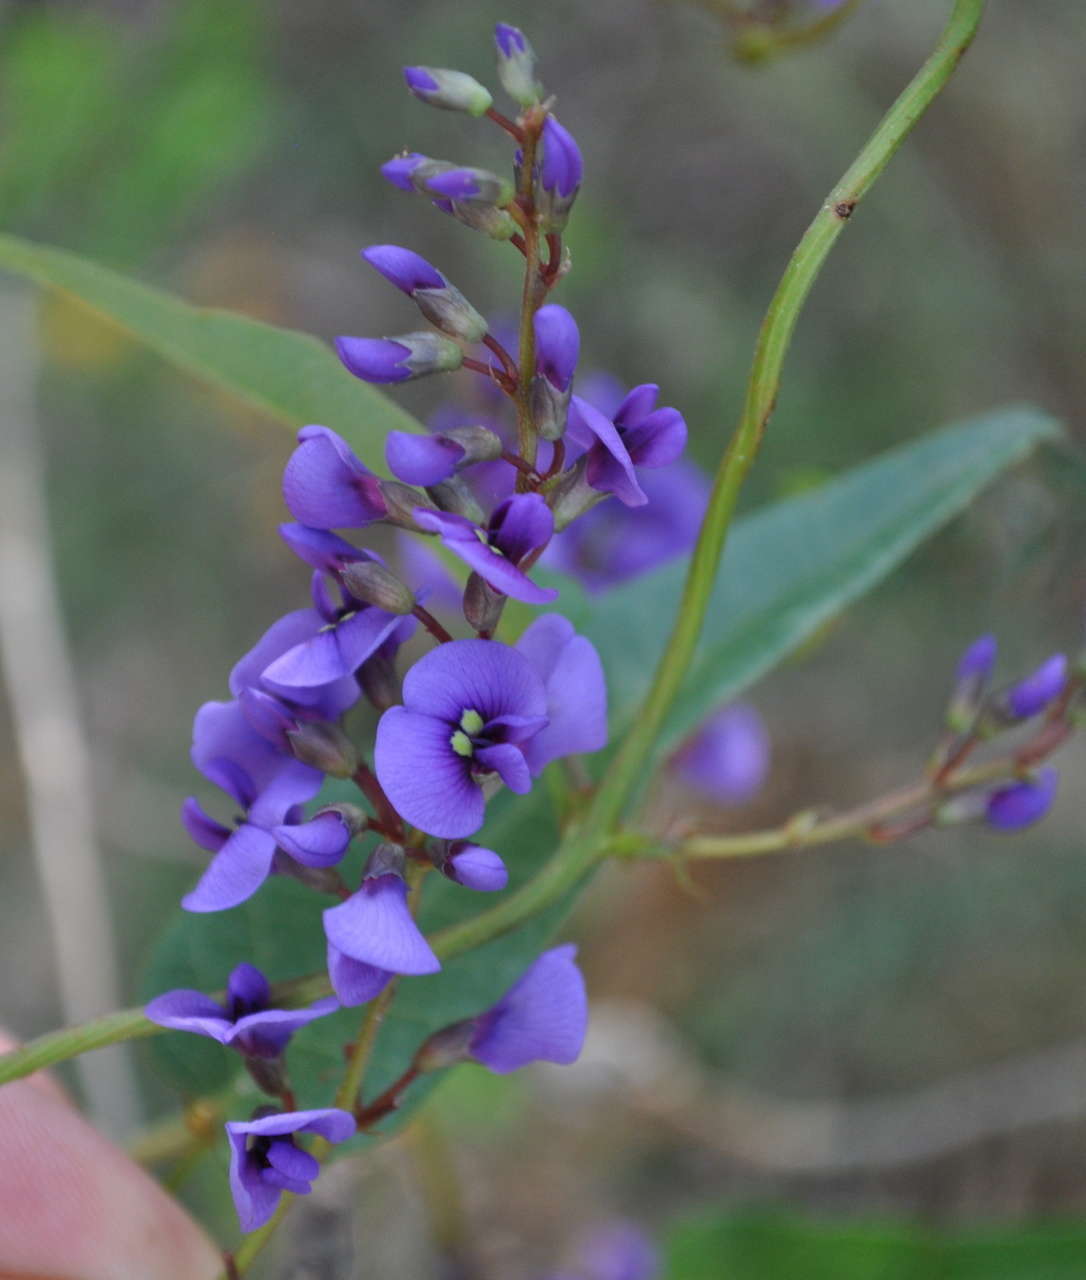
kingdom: Plantae
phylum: Tracheophyta
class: Magnoliopsida
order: Fabales
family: Fabaceae
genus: Hardenbergia
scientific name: Hardenbergia violacea
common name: Coral-pea
